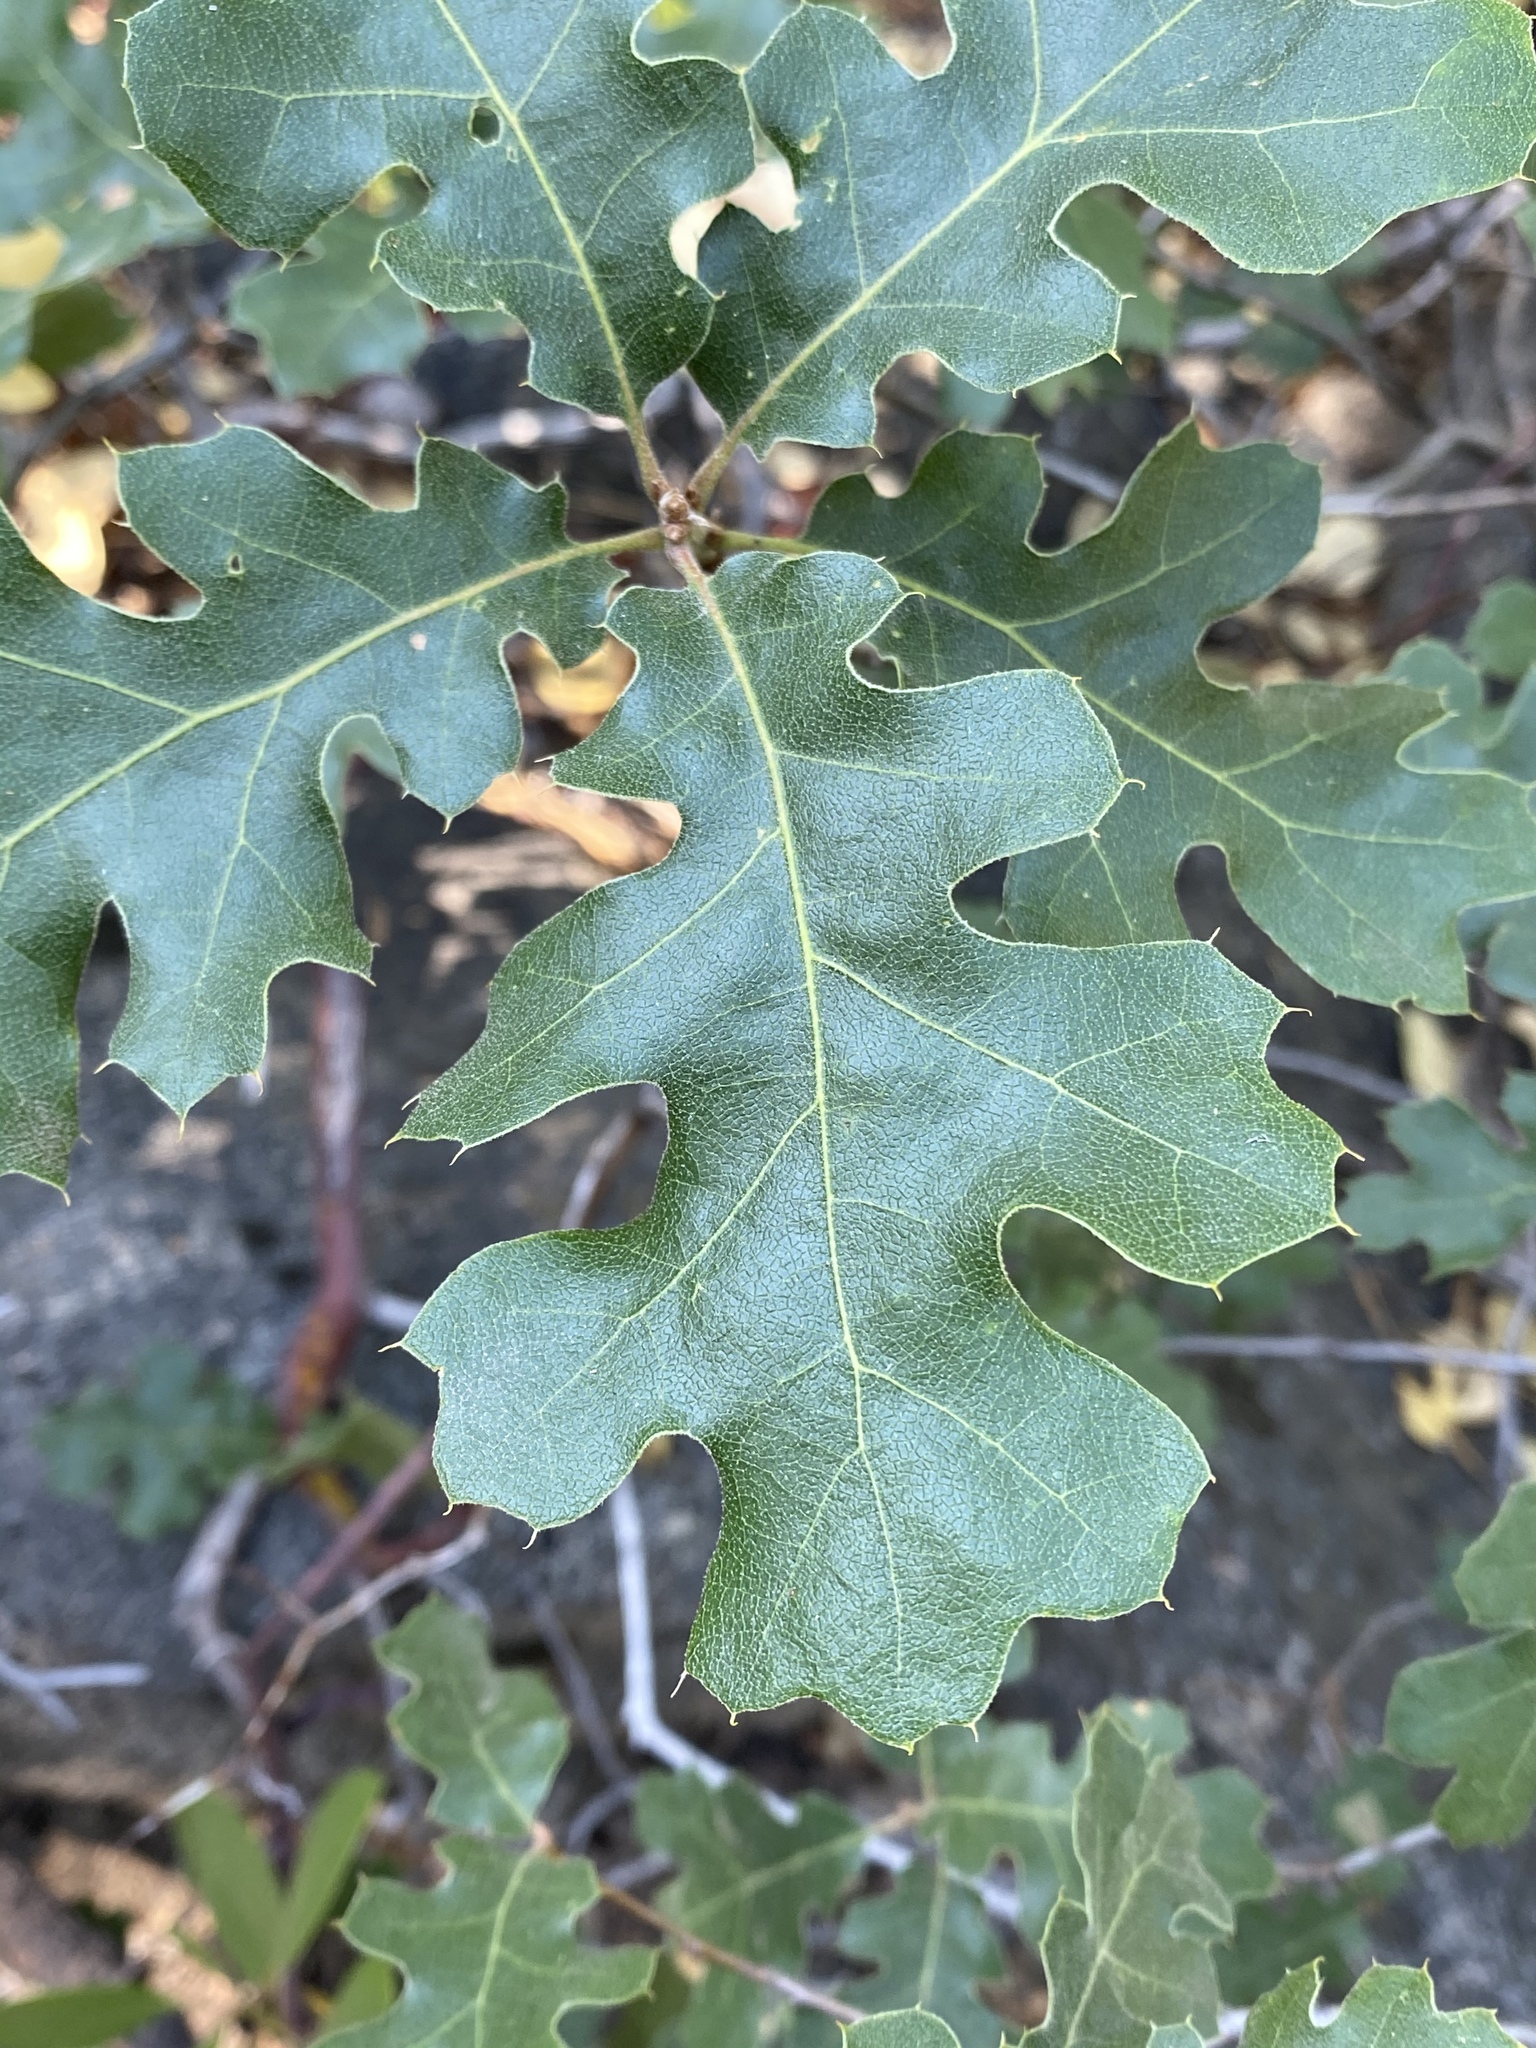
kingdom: Plantae
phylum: Tracheophyta
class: Magnoliopsida
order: Fagales
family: Fagaceae
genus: Quercus
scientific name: Quercus kelloggii
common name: California black oak
